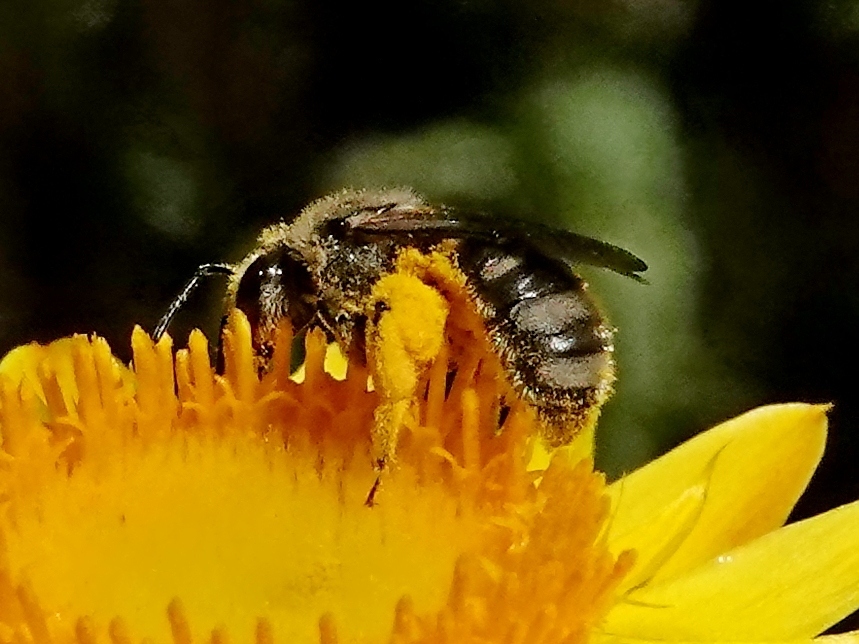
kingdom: Animalia
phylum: Arthropoda
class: Insecta
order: Hymenoptera
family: Halictidae
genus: Lasioglossum
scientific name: Lasioglossum lanarium
